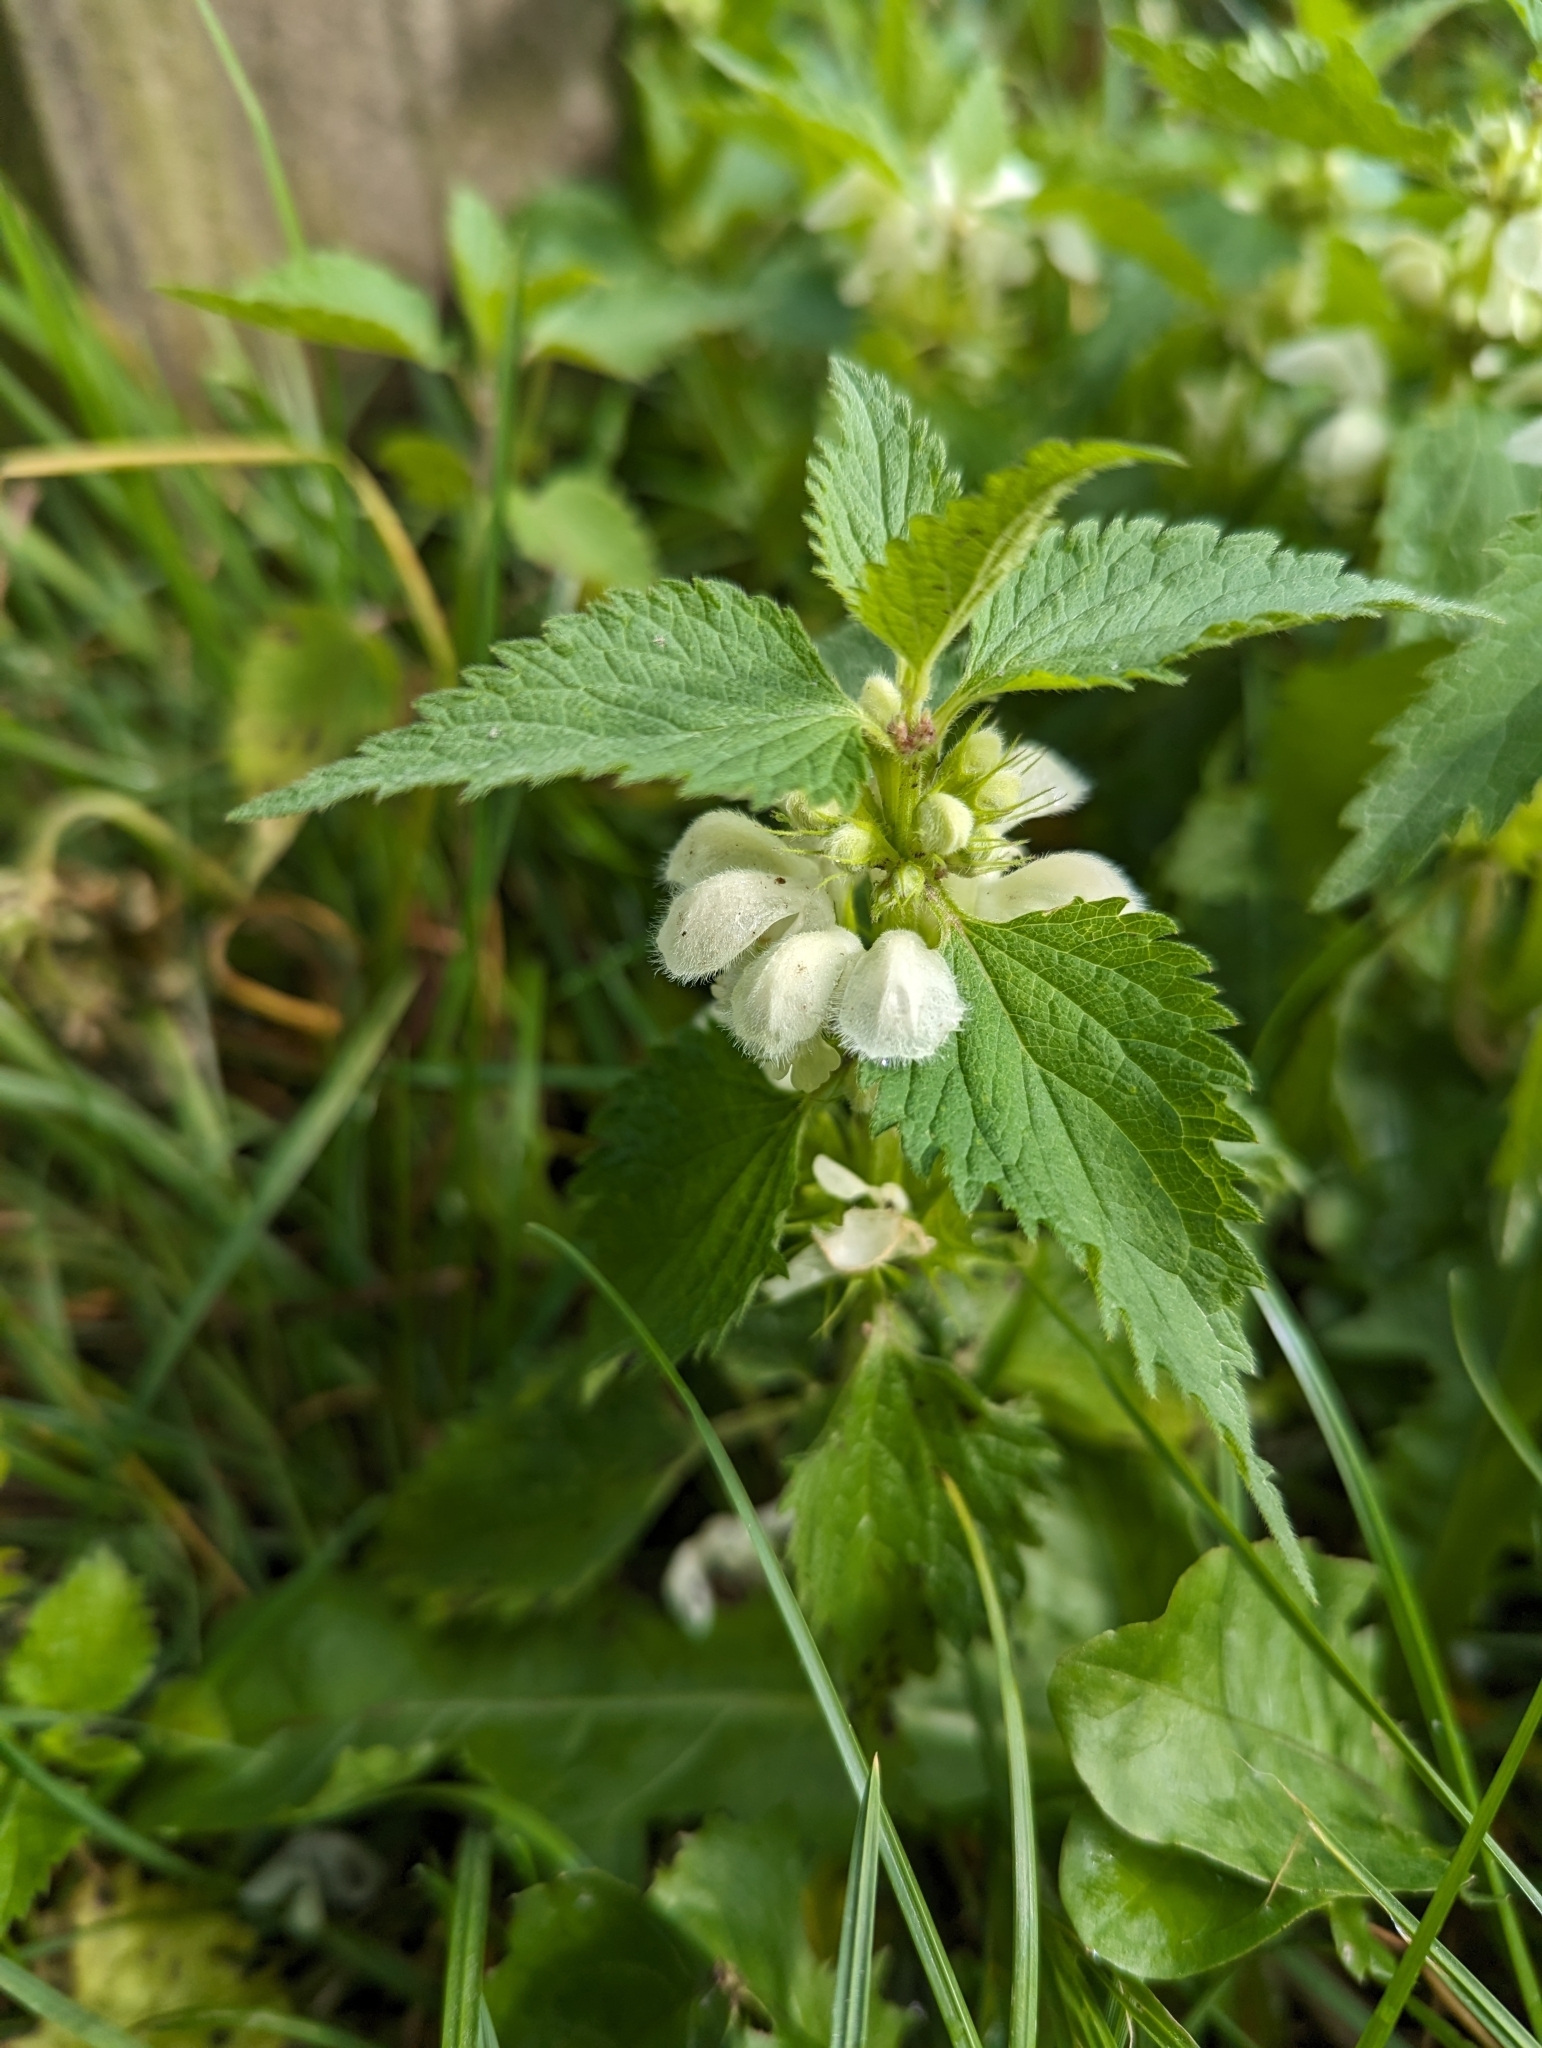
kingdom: Plantae
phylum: Tracheophyta
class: Magnoliopsida
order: Lamiales
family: Lamiaceae
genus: Lamium
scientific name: Lamium album
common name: White dead-nettle
